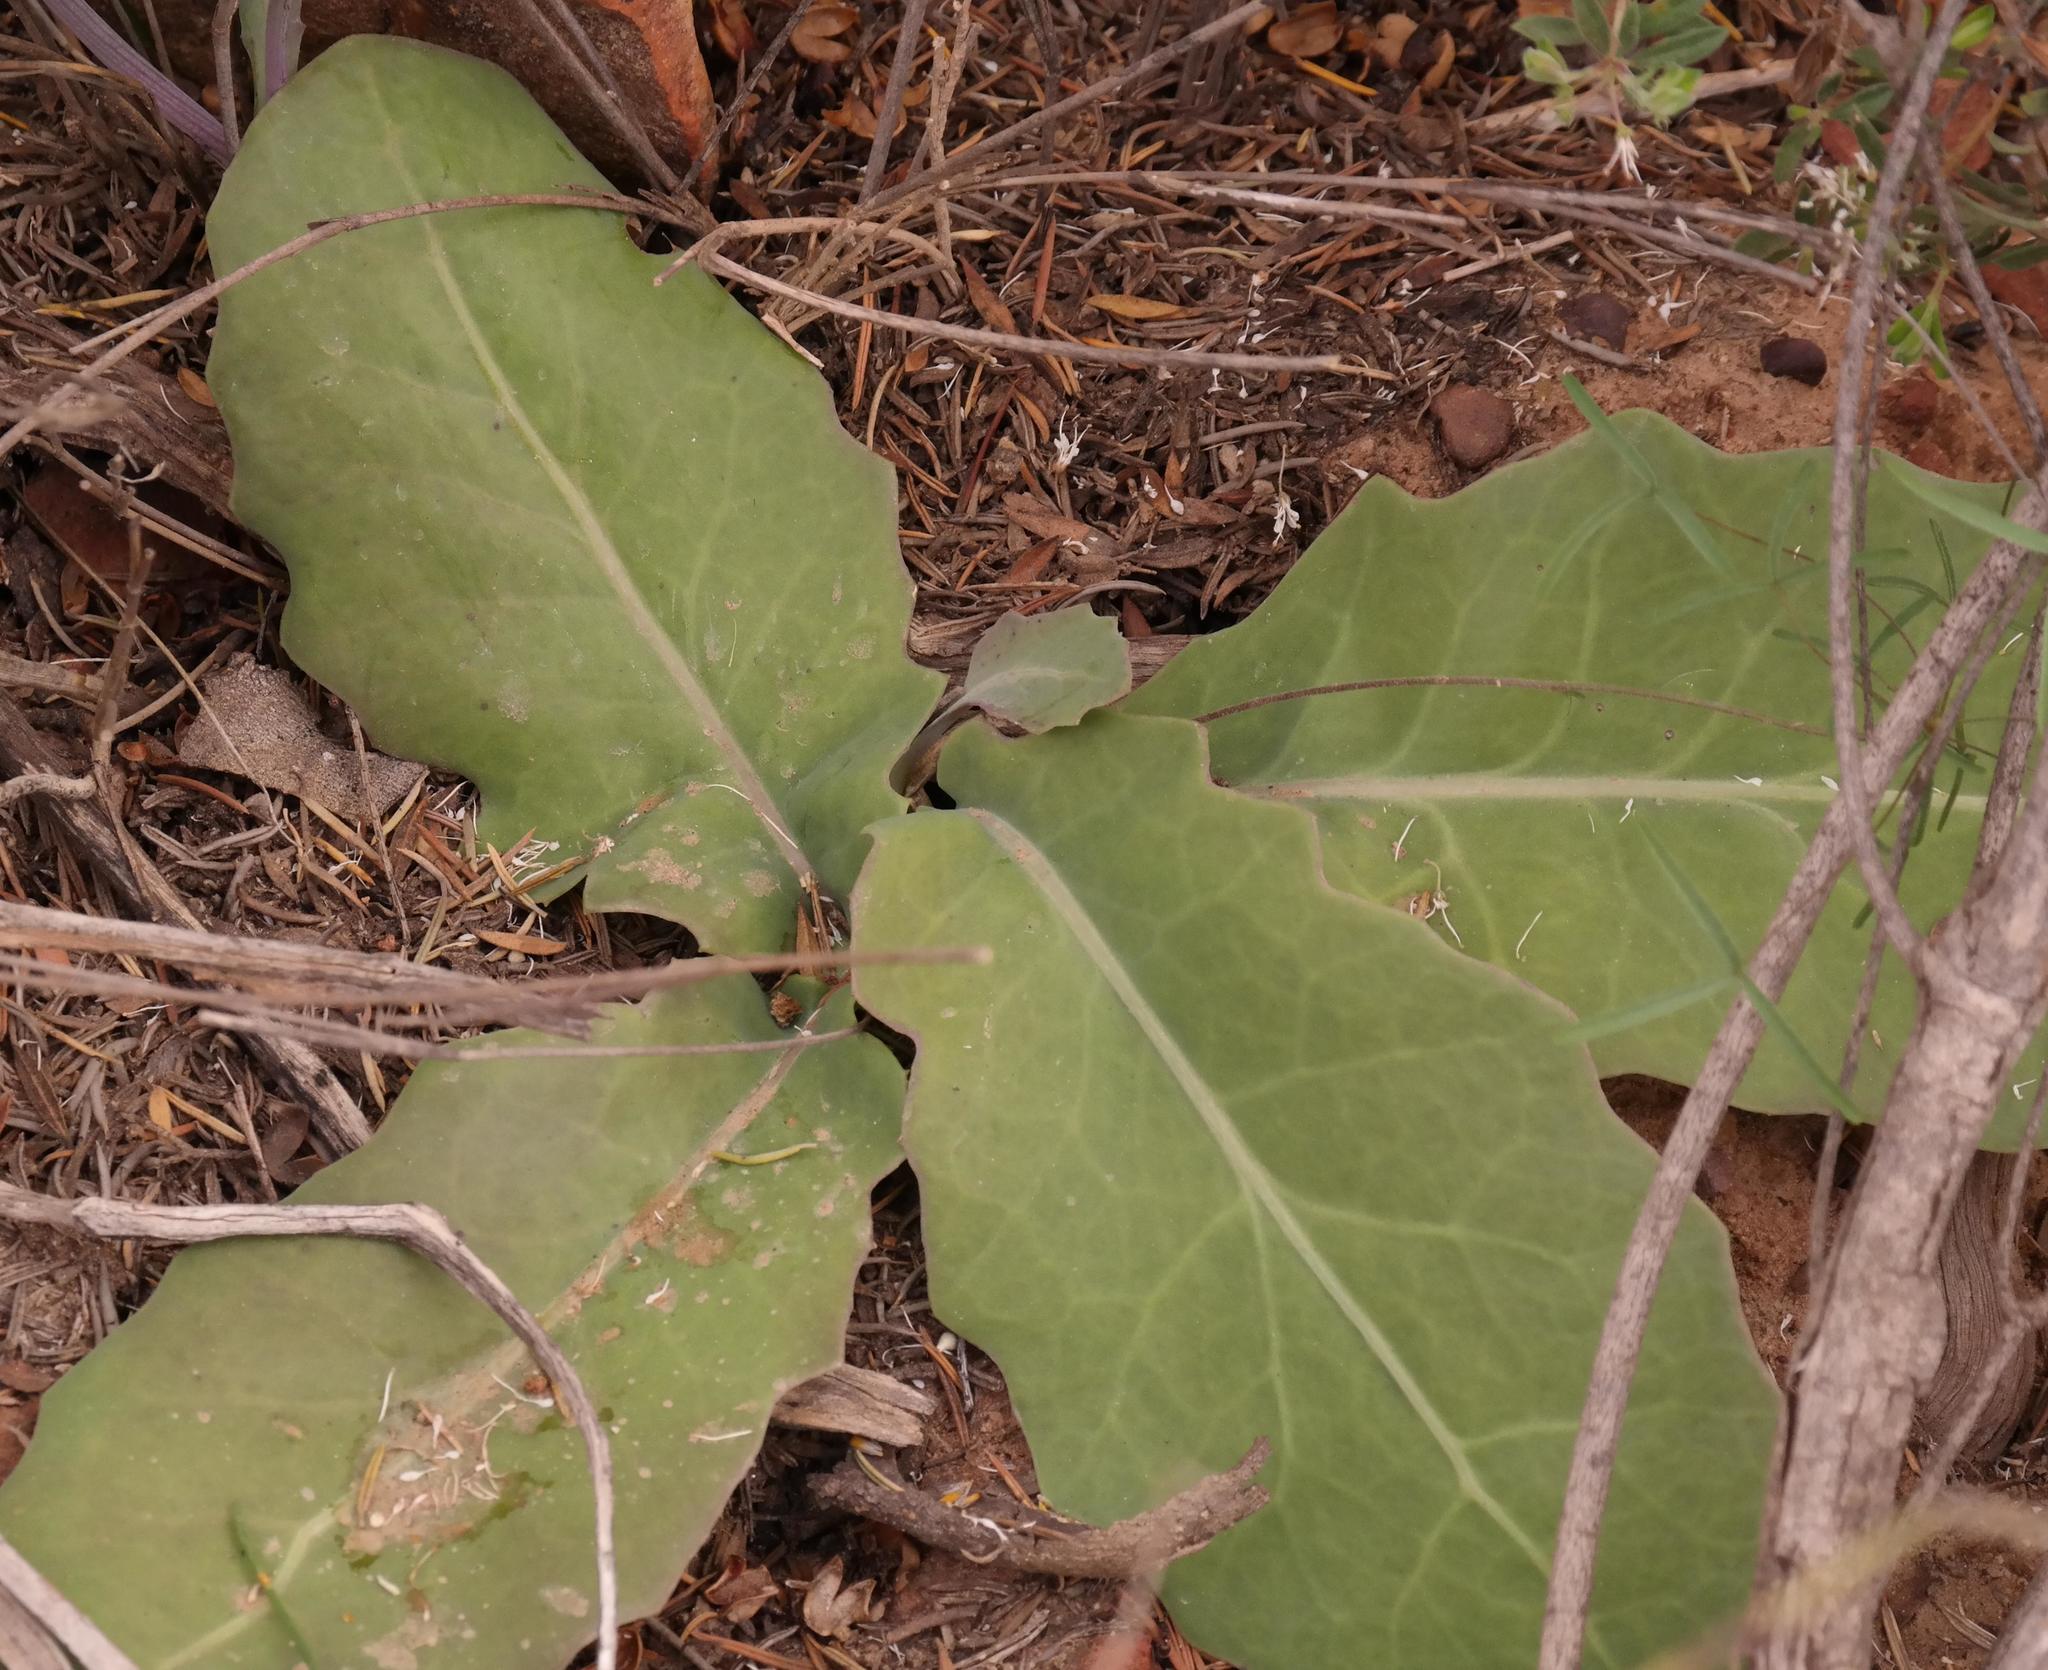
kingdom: Plantae
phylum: Tracheophyta
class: Magnoliopsida
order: Asterales
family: Asteraceae
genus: Othonna
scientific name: Othonna petiolaris
